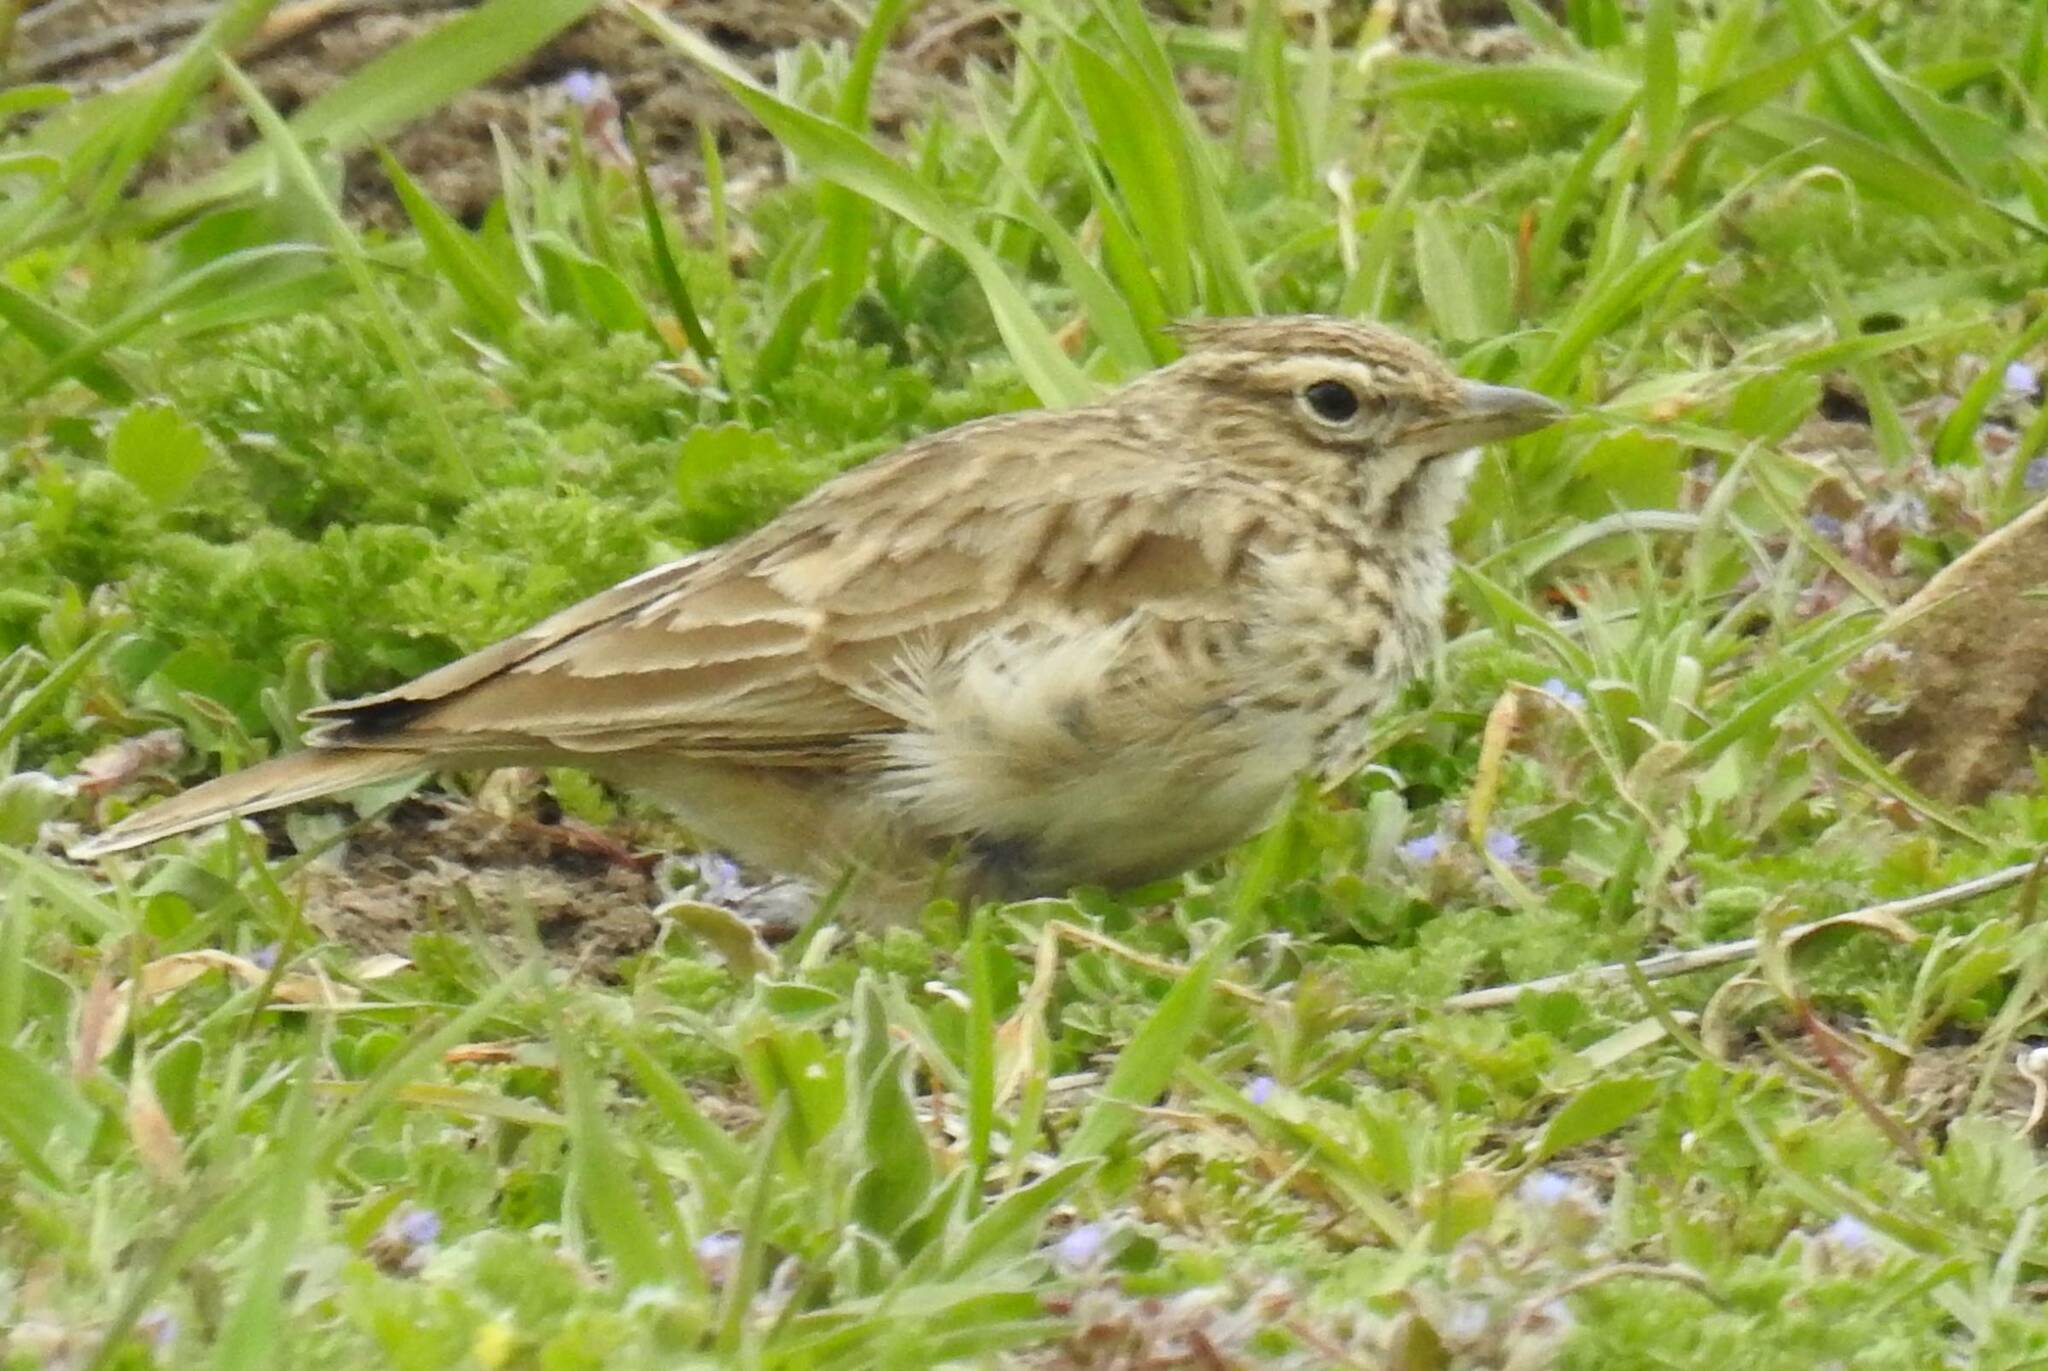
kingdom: Animalia
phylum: Chordata
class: Aves
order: Passeriformes
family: Alaudidae
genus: Galerida
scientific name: Galerida cristata
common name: Crested lark
